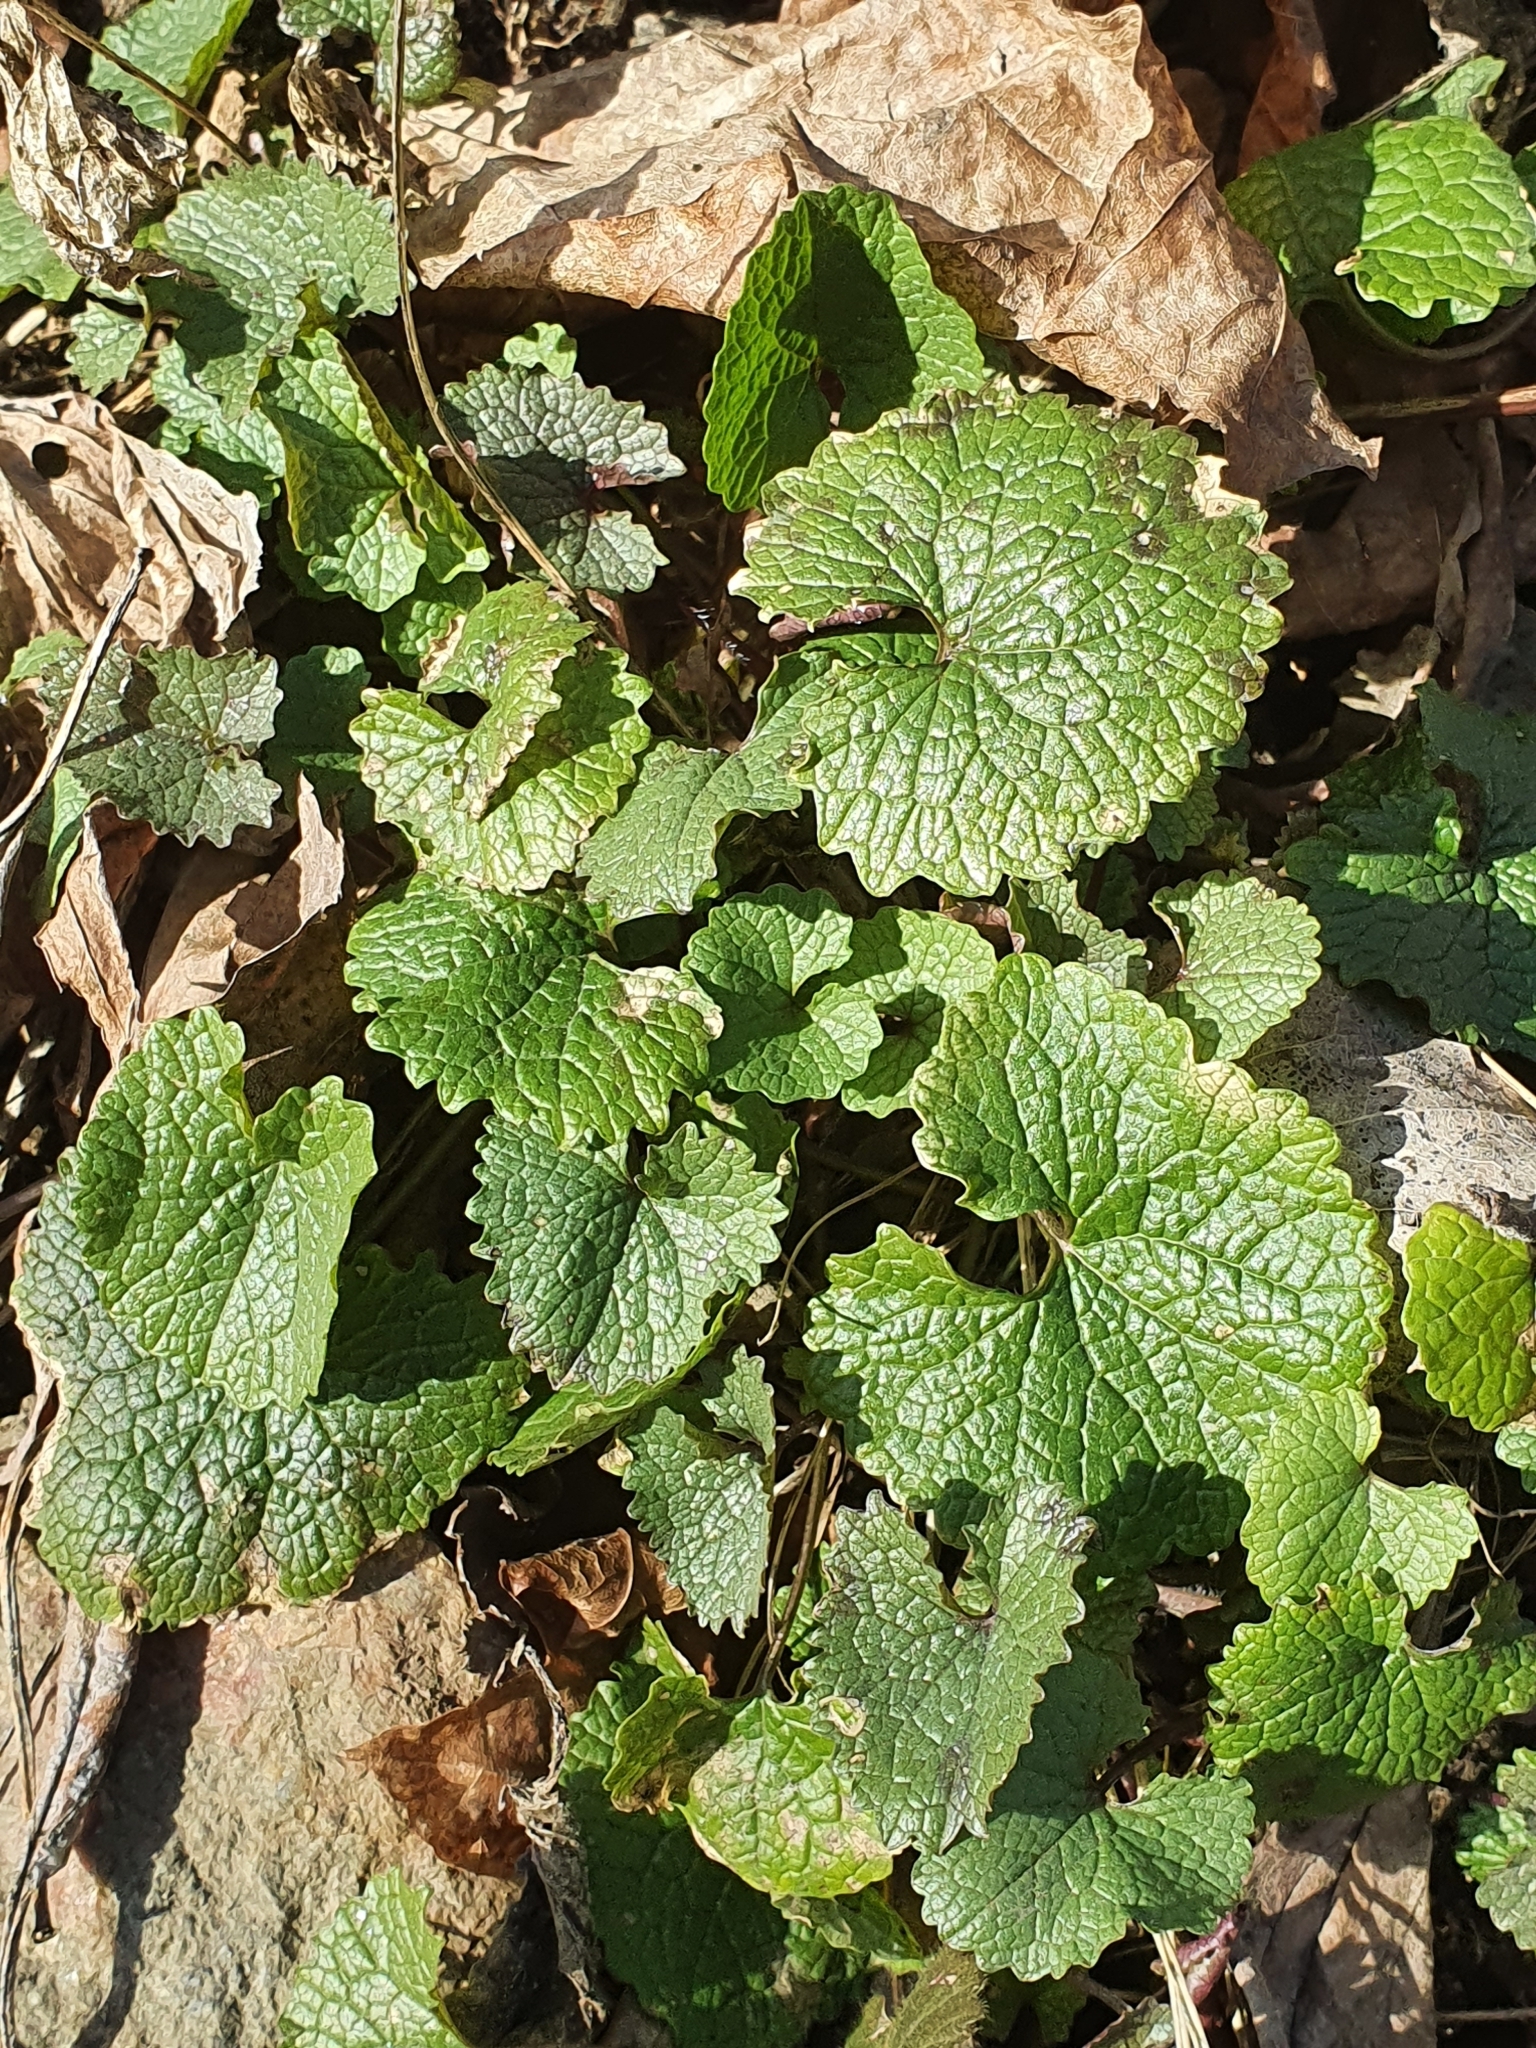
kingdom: Plantae
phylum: Tracheophyta
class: Magnoliopsida
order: Brassicales
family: Brassicaceae
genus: Alliaria
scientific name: Alliaria petiolata
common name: Garlic mustard
